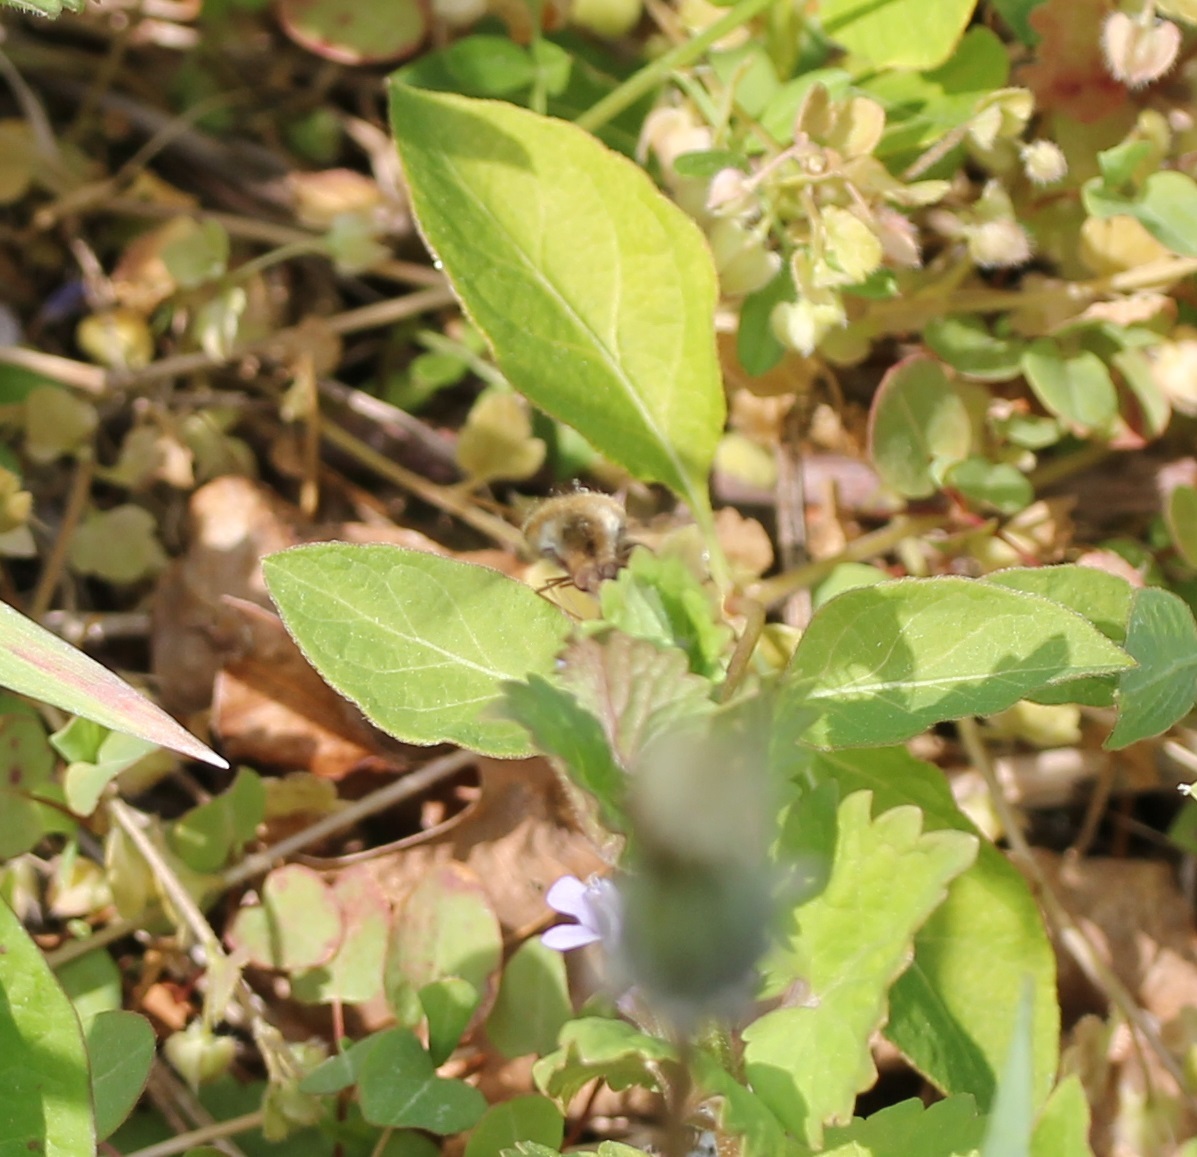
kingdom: Animalia
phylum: Arthropoda
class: Insecta
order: Diptera
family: Bombyliidae
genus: Bombylius
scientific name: Bombylius major
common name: Bee fly
